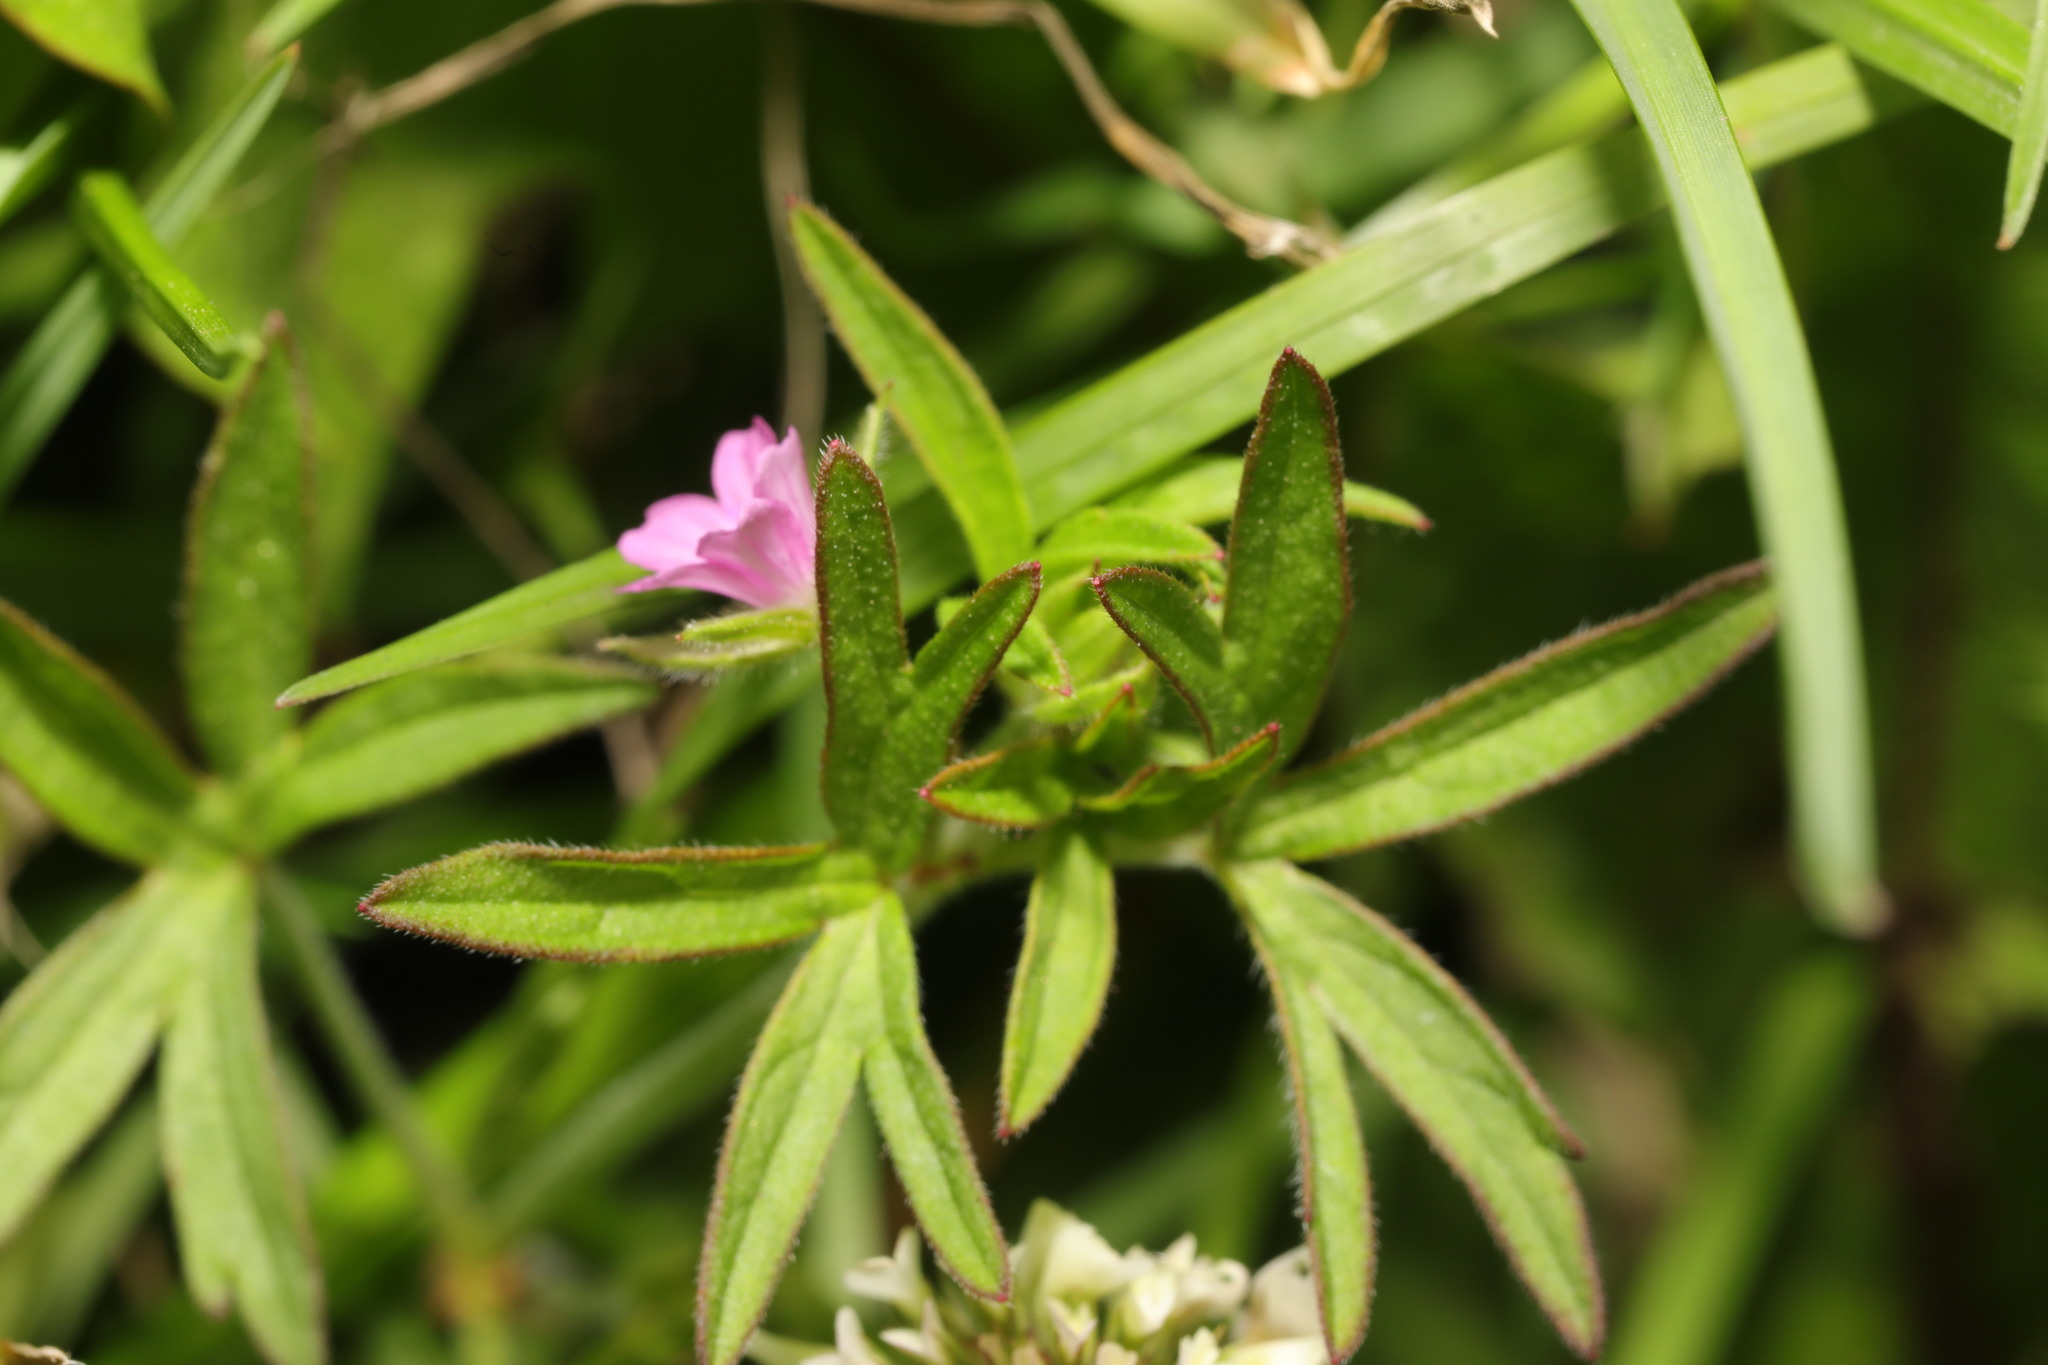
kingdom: Plantae
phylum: Tracheophyta
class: Magnoliopsida
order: Geraniales
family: Geraniaceae
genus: Geranium
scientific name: Geranium dissectum
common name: Cut-leaved crane's-bill
